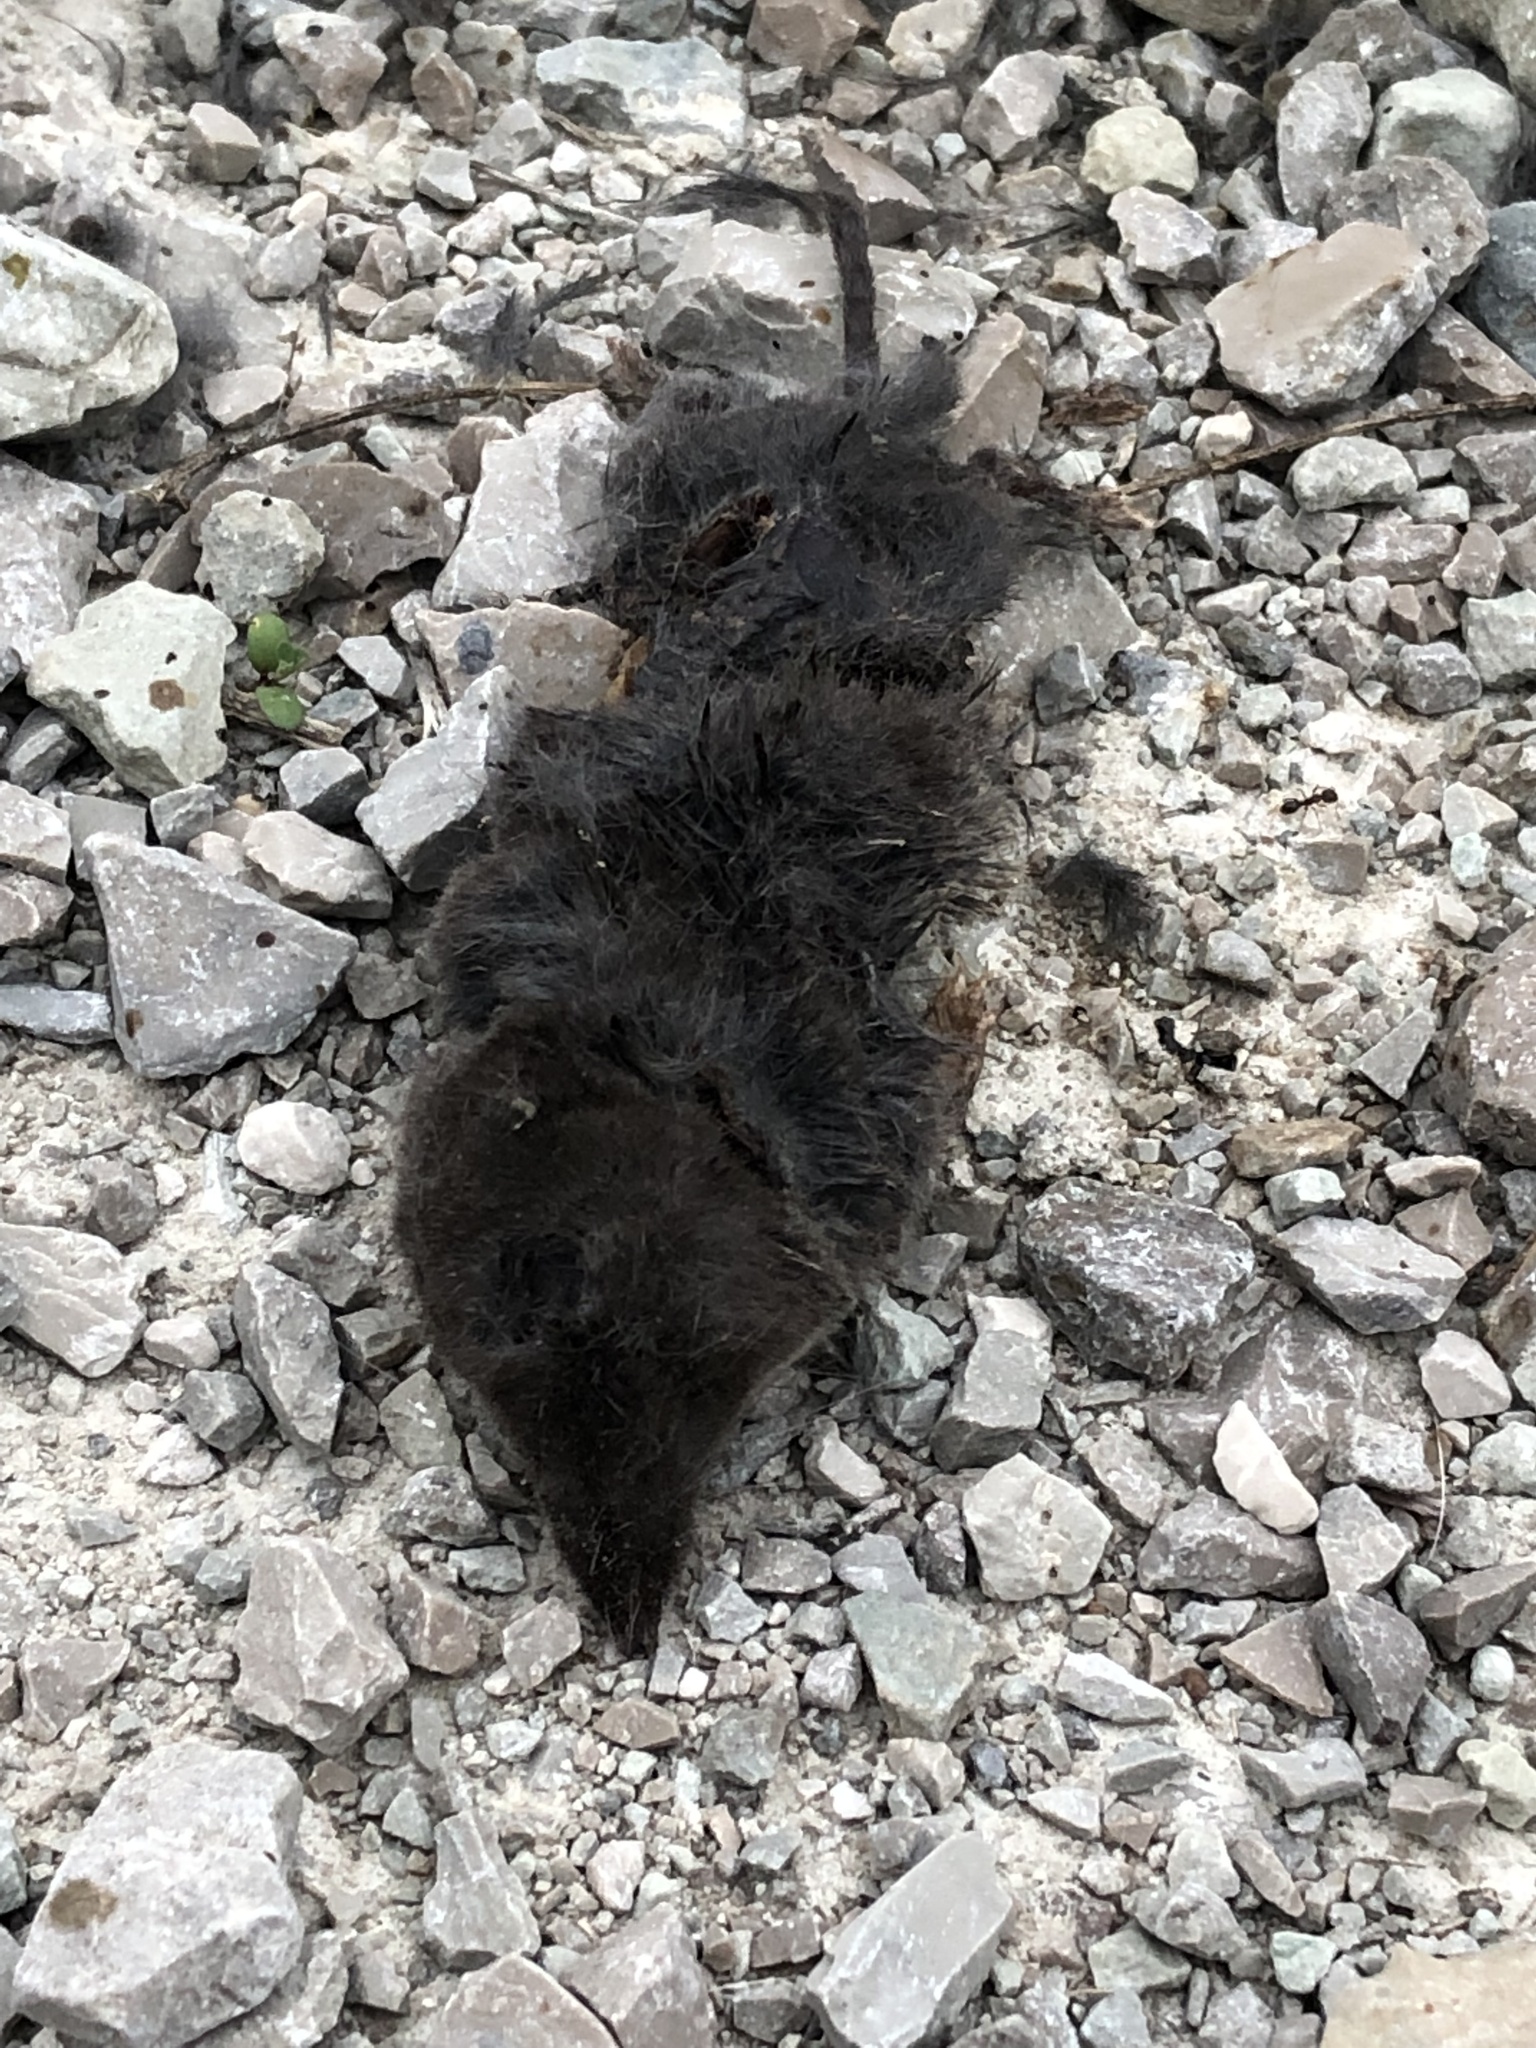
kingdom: Animalia
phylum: Chordata
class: Mammalia
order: Soricomorpha
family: Soricidae
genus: Blarina
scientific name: Blarina brevicauda
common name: Northern short-tailed shrew
